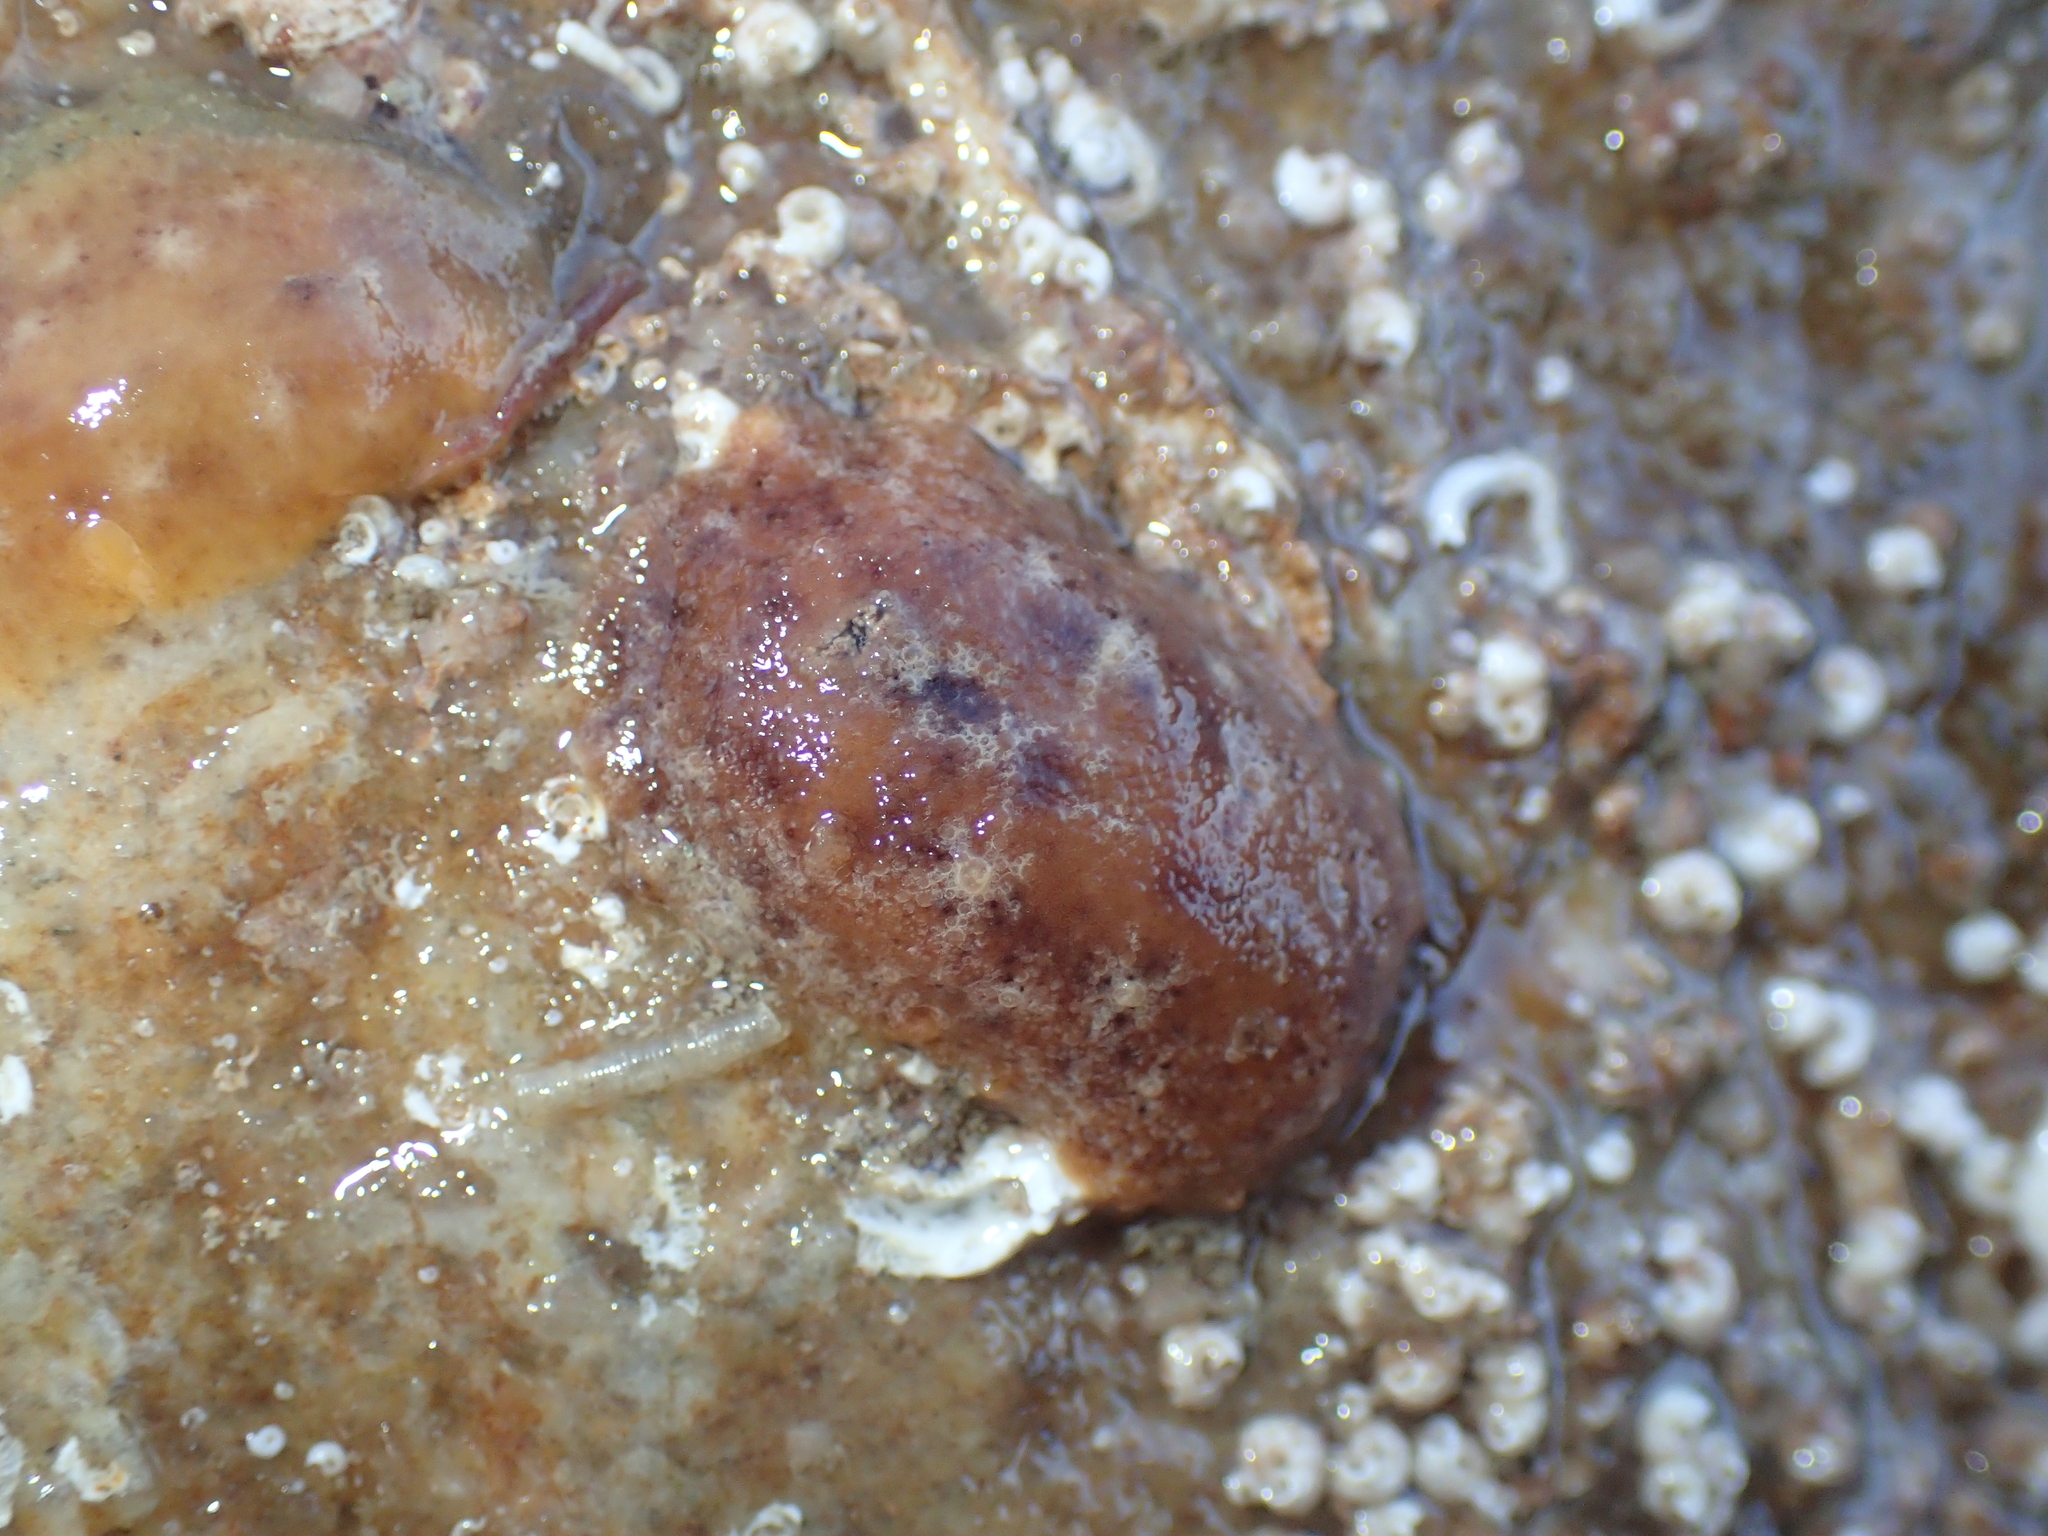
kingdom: Animalia
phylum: Mollusca
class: Gastropoda
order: Nudibranchia
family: Discodorididae
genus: Geitodoris
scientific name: Geitodoris planata
